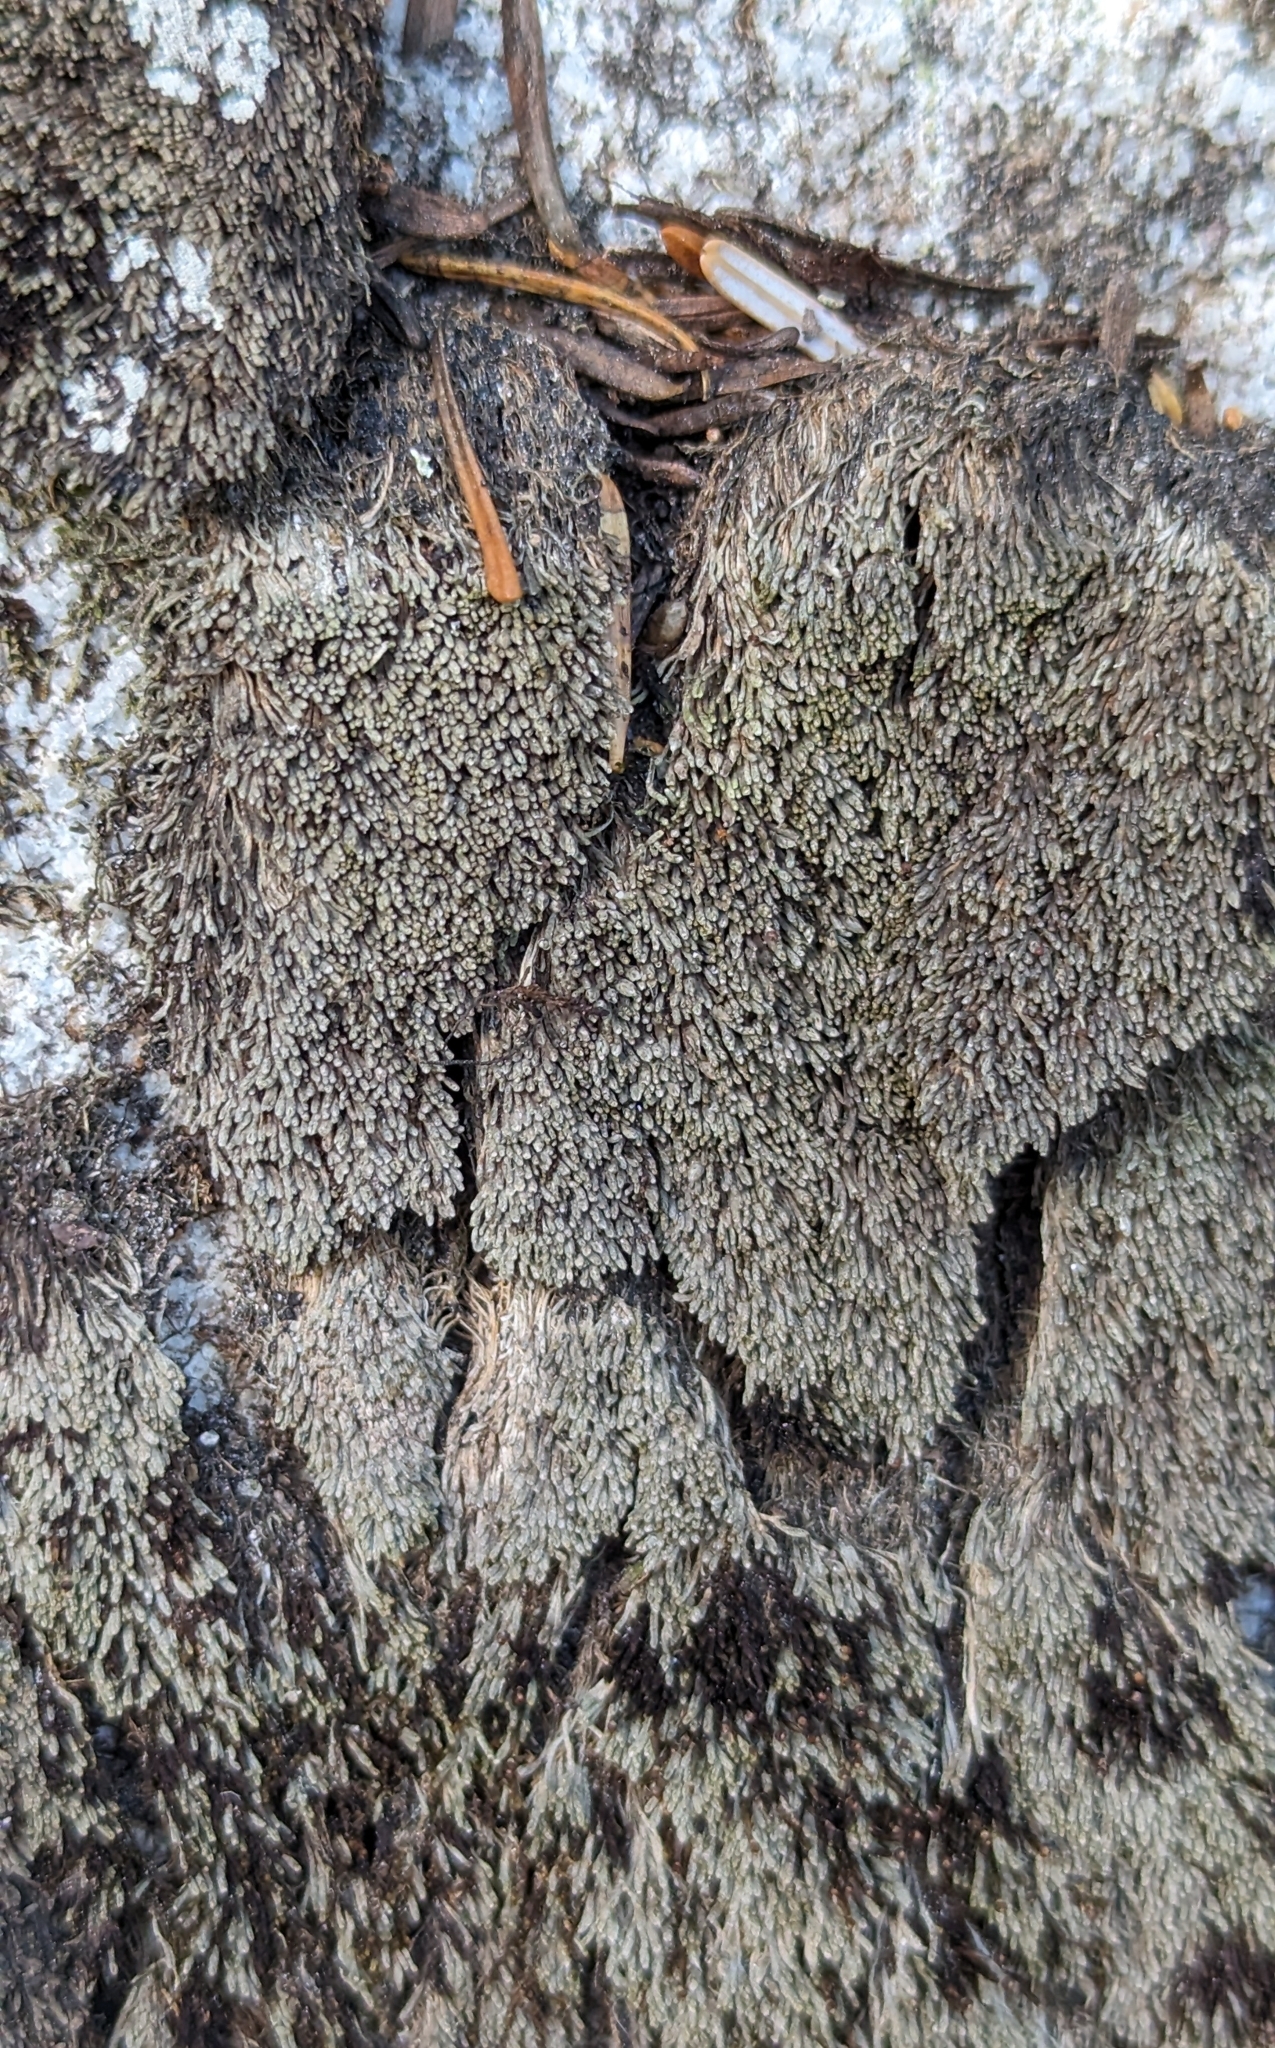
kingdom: Plantae
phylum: Marchantiophyta
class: Jungermanniopsida
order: Jungermanniales
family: Gymnomitriaceae
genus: Gymnomitrion
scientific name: Gymnomitrion obtusum
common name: White frostwort
